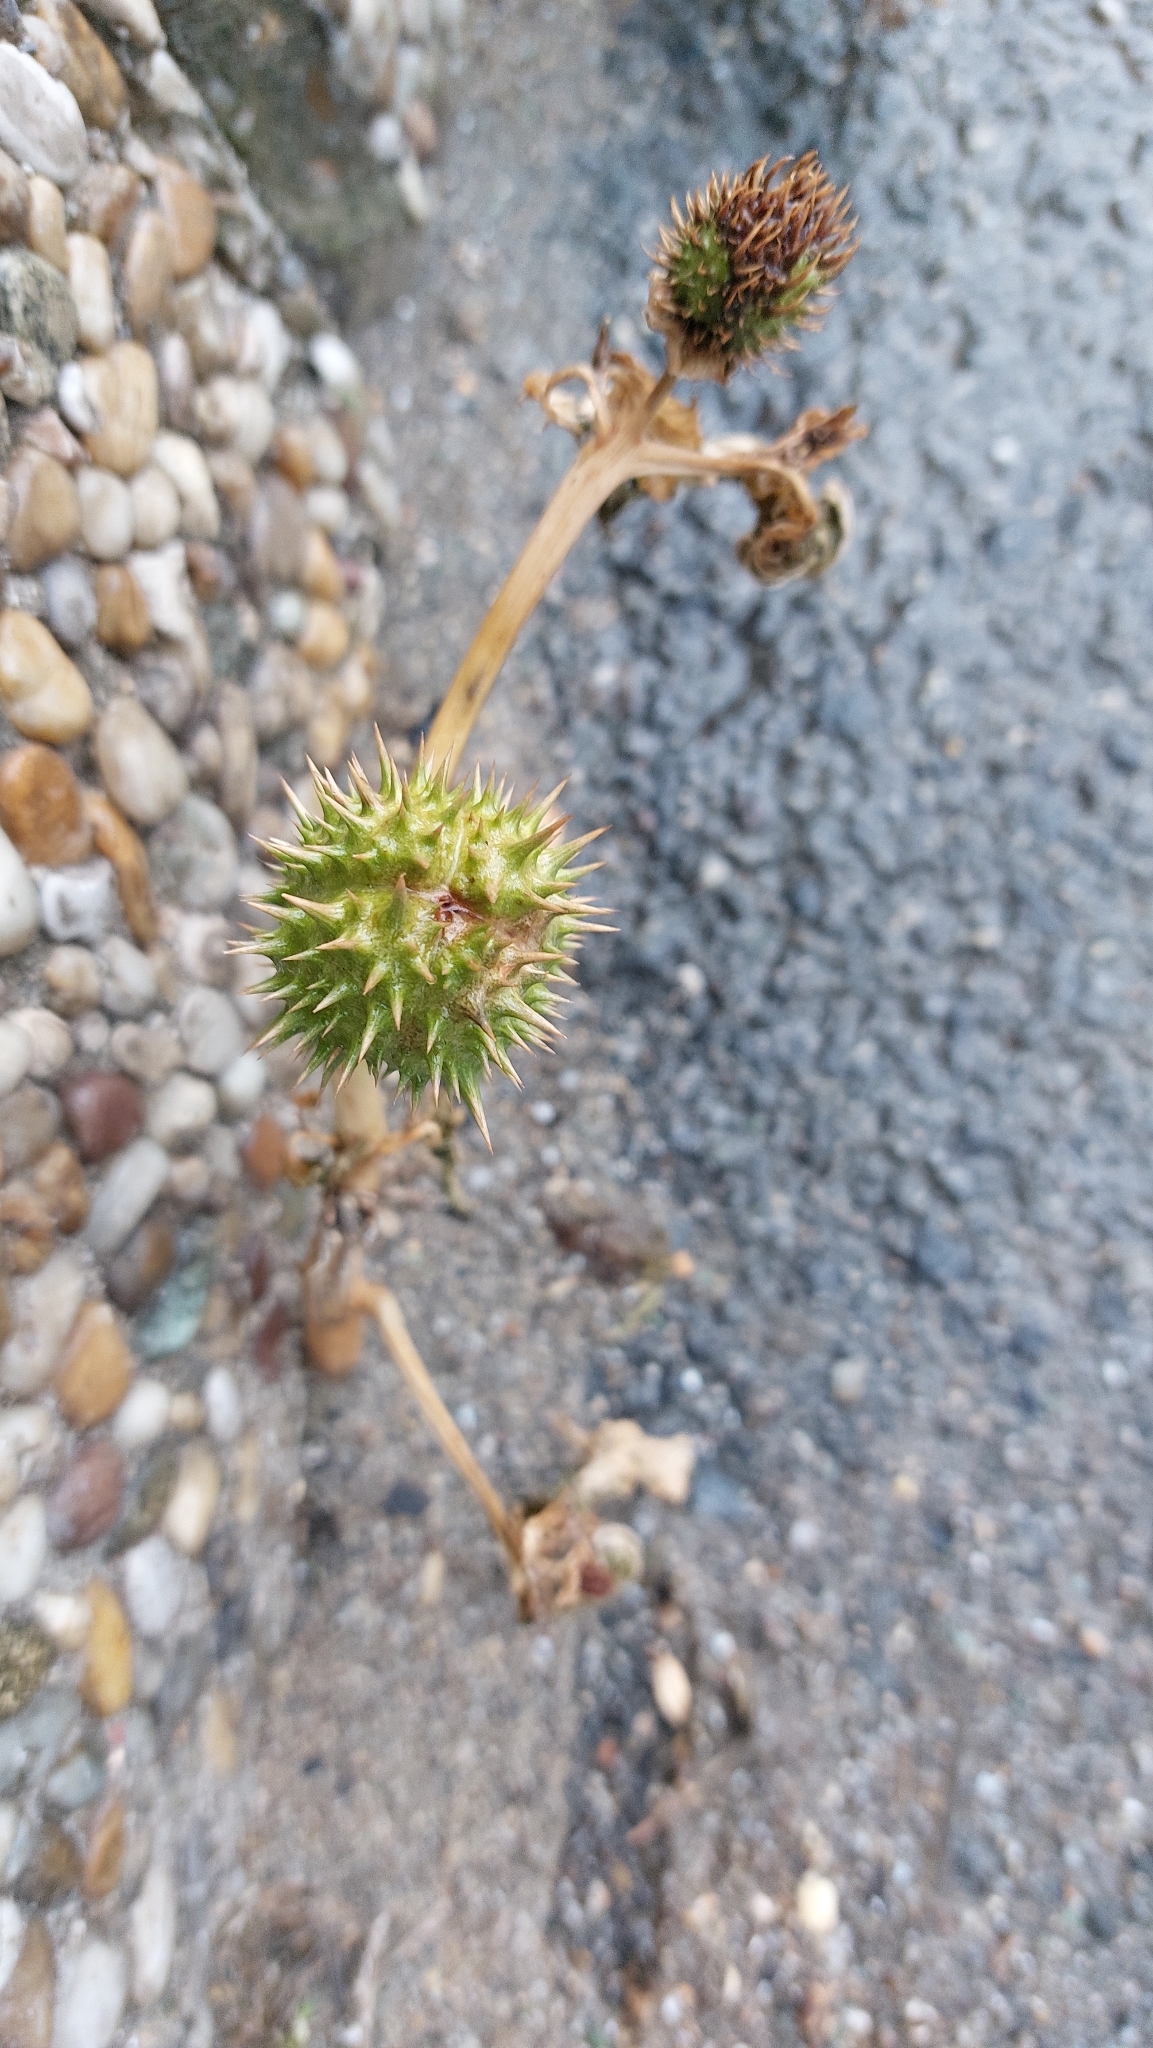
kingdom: Plantae
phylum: Tracheophyta
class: Magnoliopsida
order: Solanales
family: Solanaceae
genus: Datura
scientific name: Datura stramonium
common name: Thorn-apple
